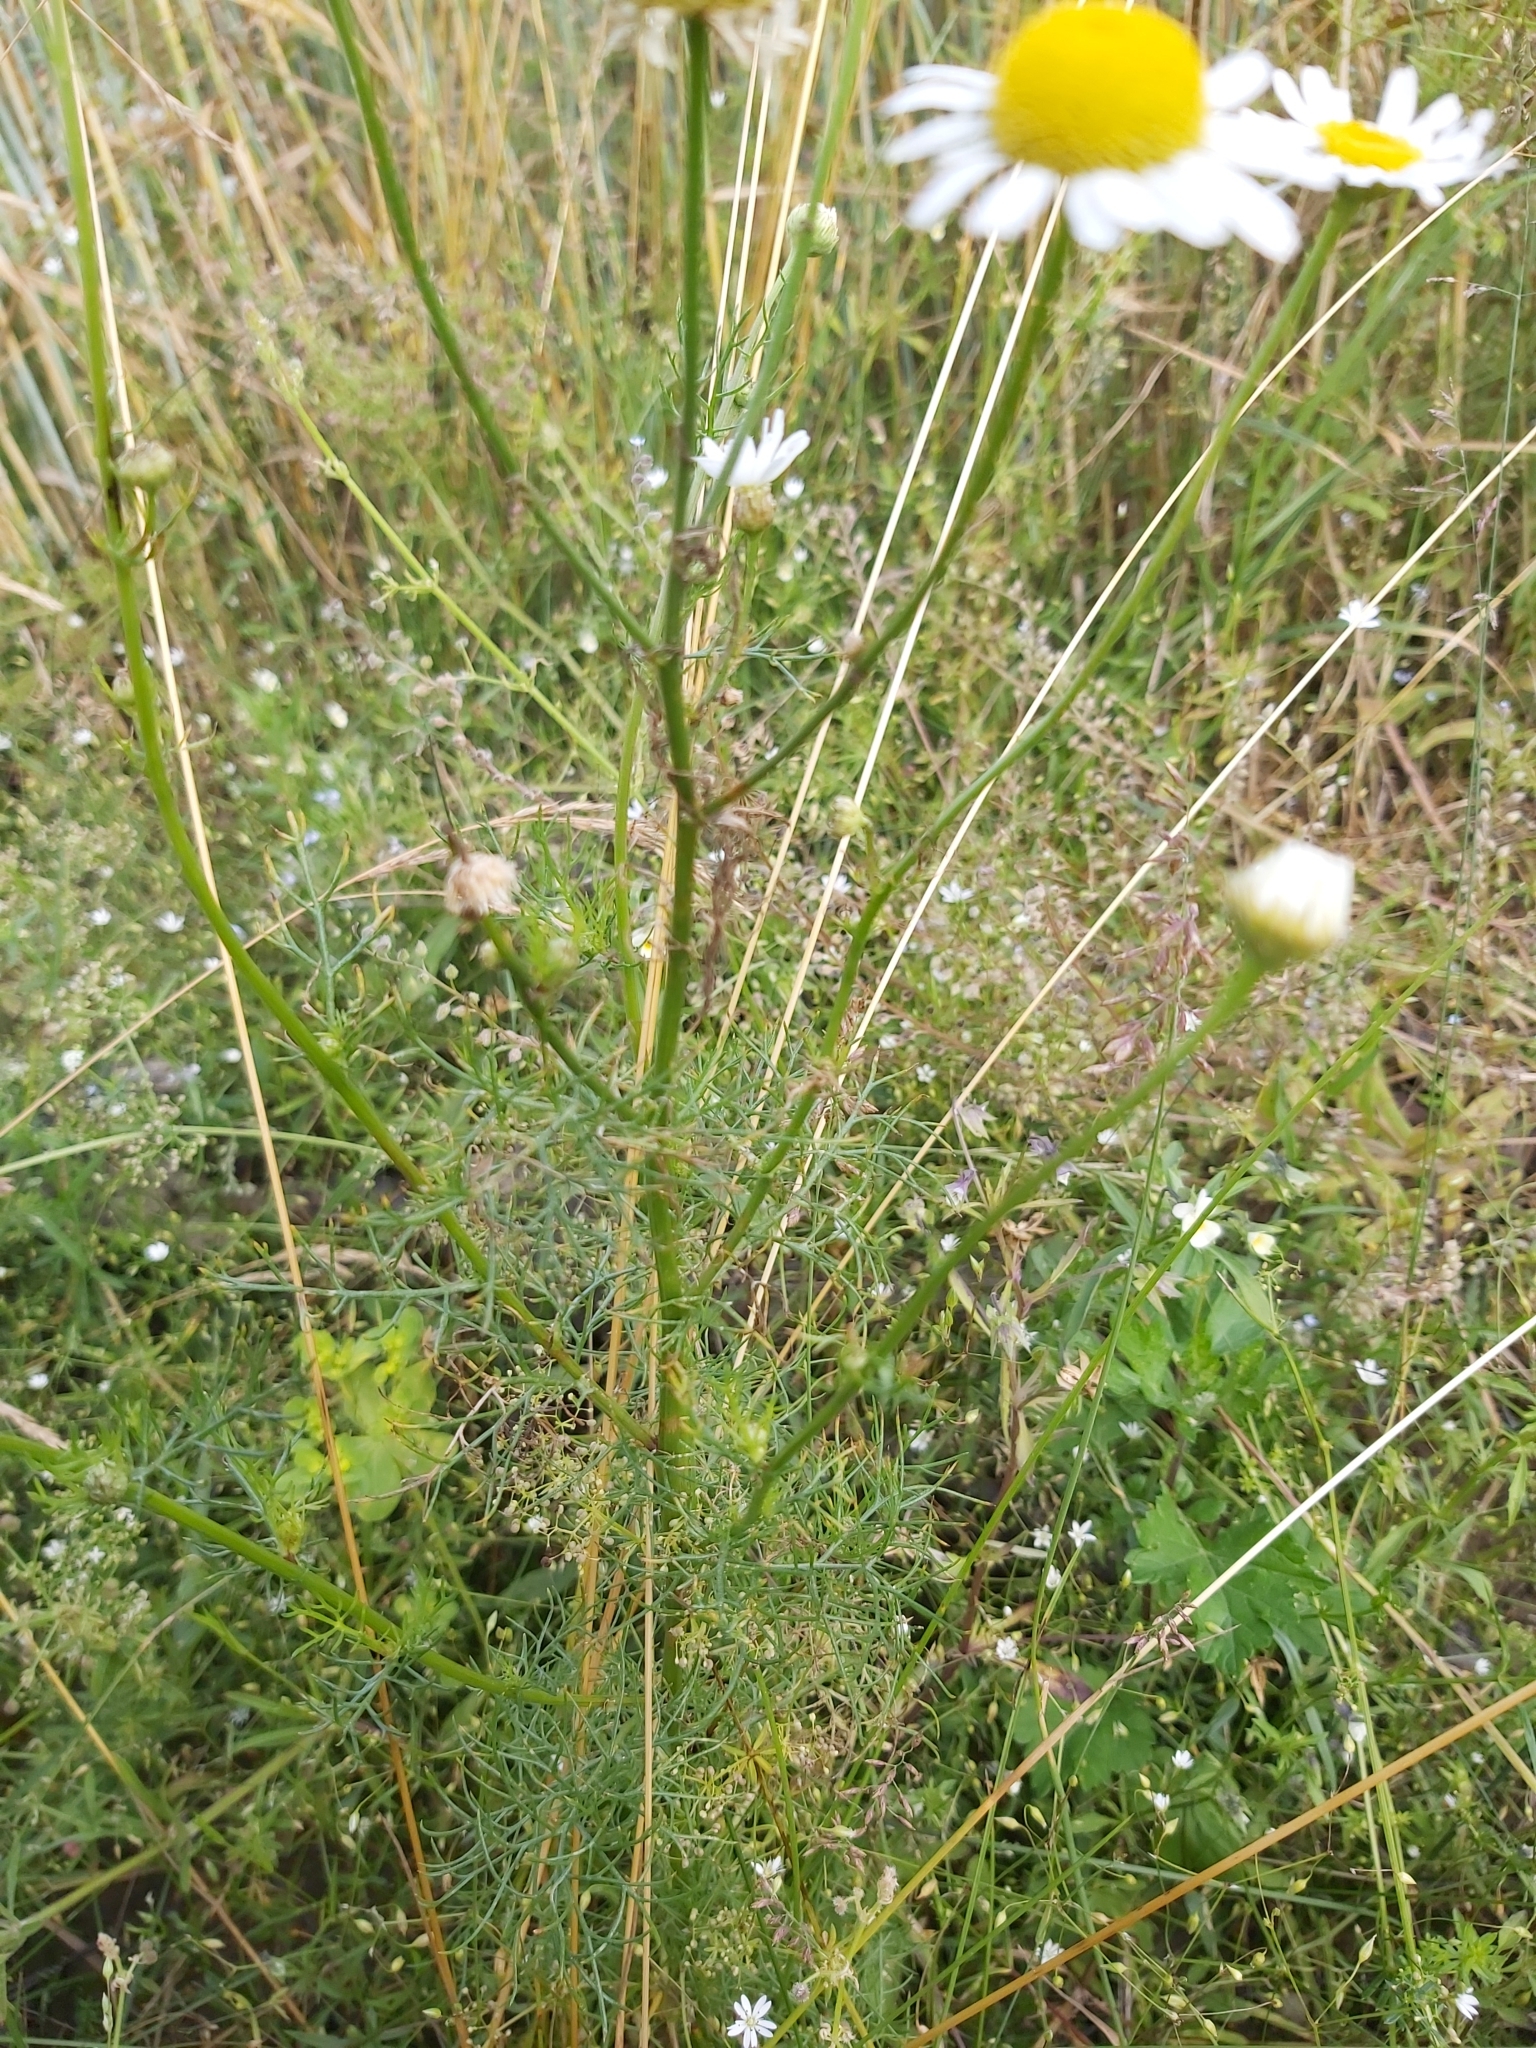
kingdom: Plantae
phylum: Tracheophyta
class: Magnoliopsida
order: Asterales
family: Asteraceae
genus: Tripleurospermum
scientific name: Tripleurospermum inodorum
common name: Scentless mayweed
